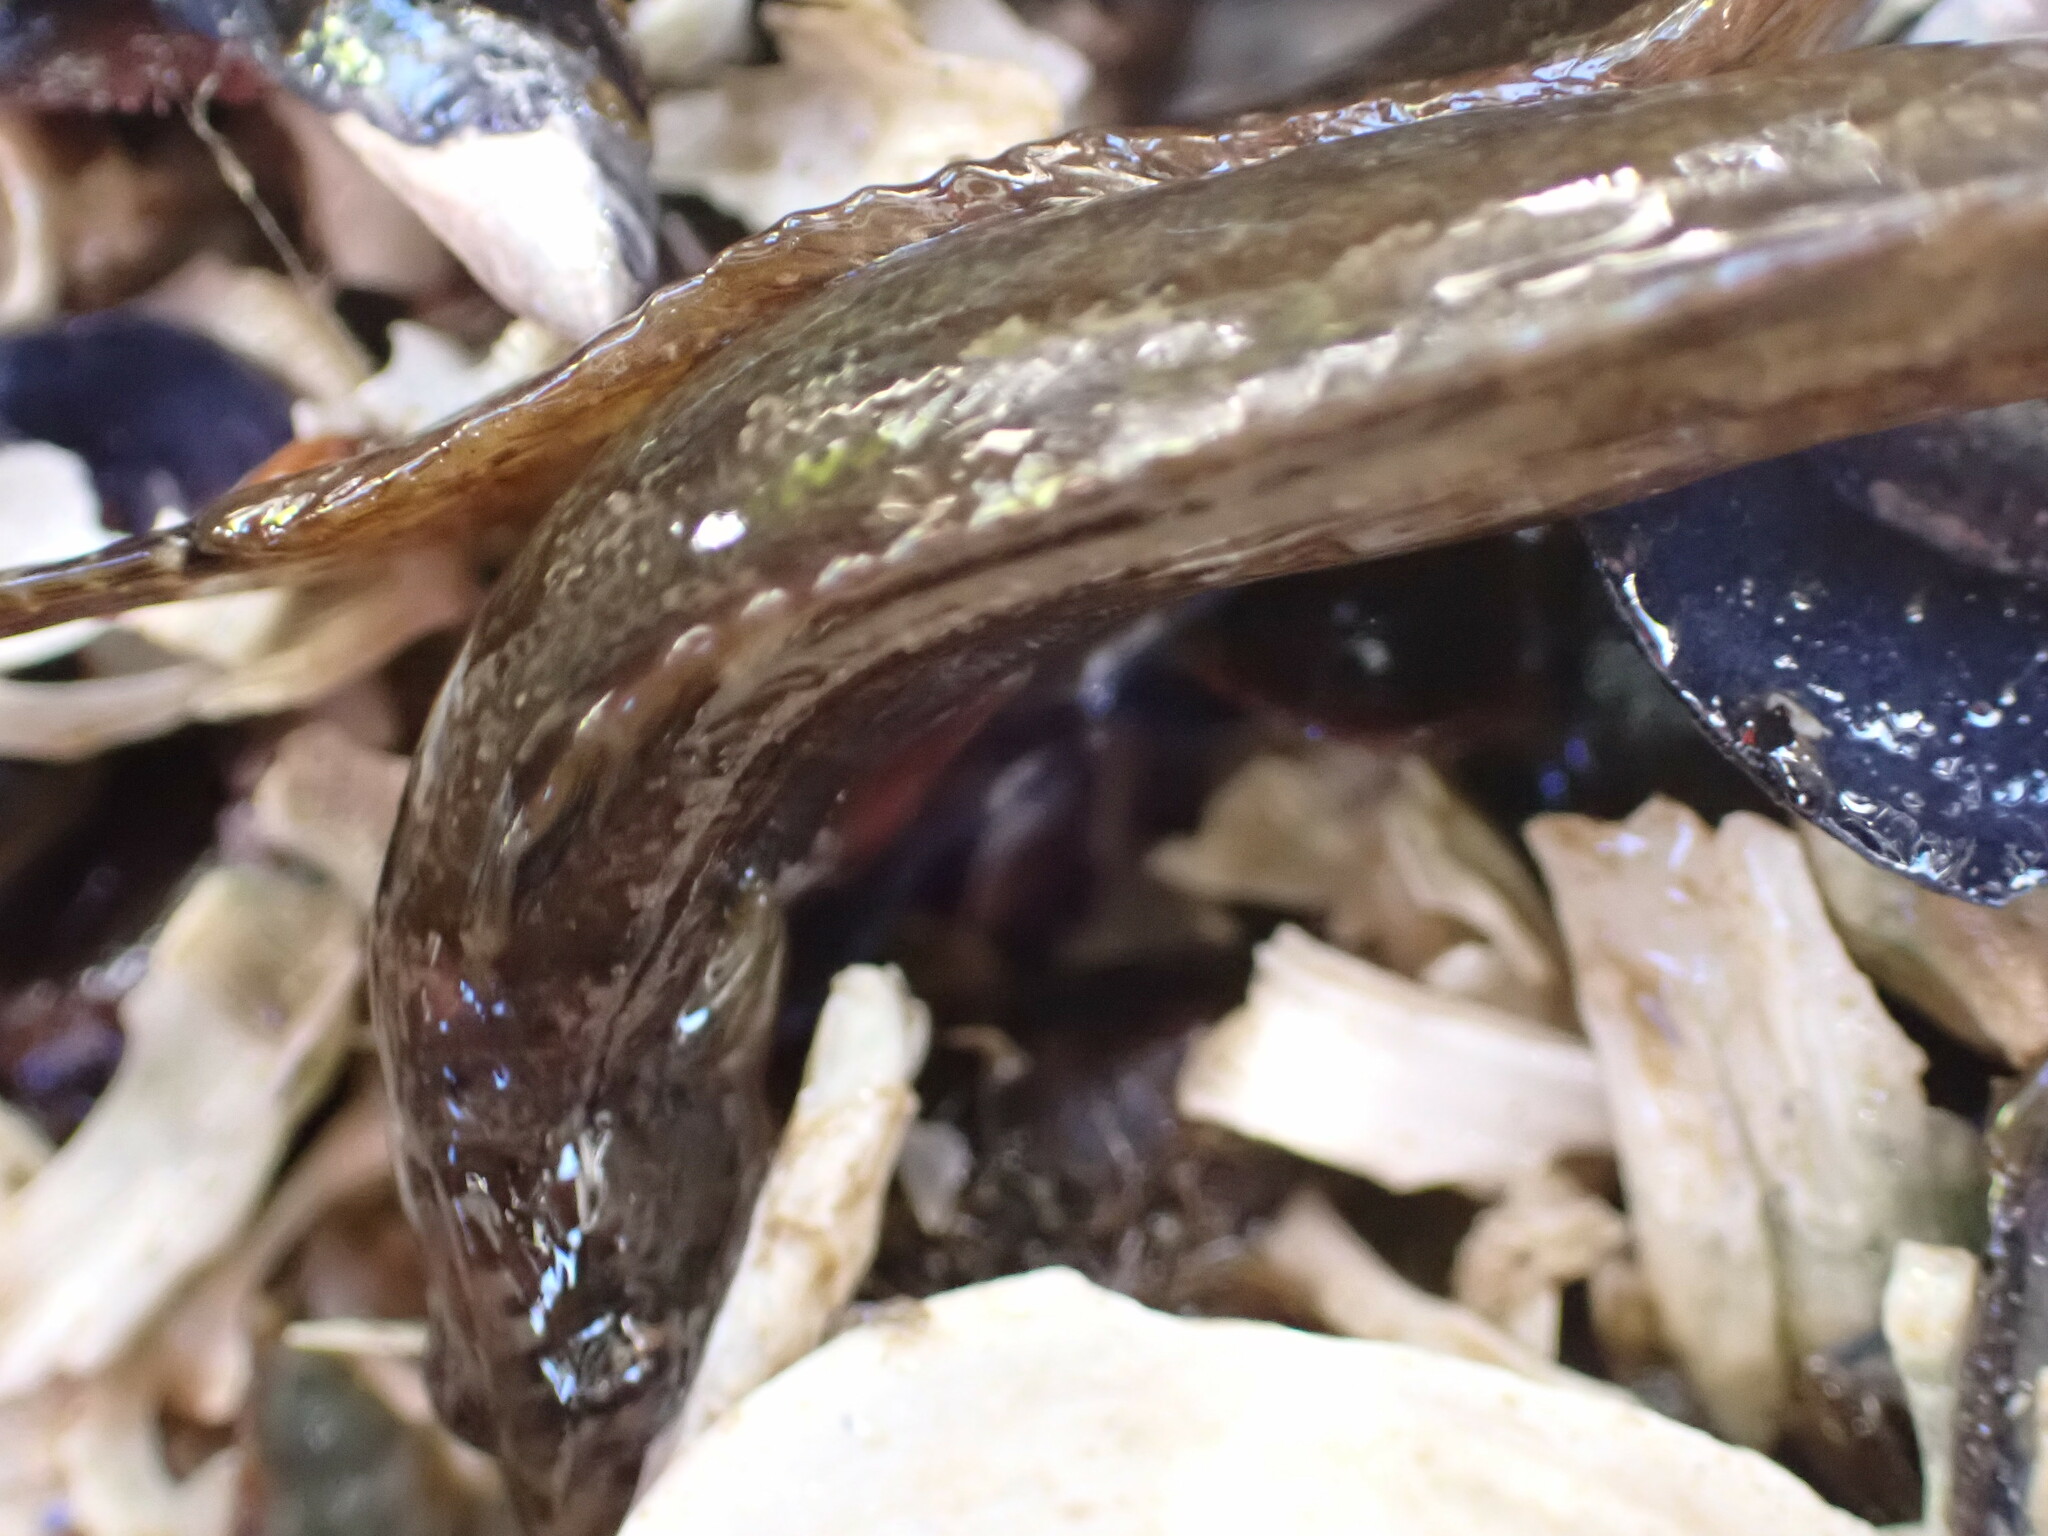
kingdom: Animalia
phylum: Chordata
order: Perciformes
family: Stichaeidae
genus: Anoplarchus
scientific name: Anoplarchus purpurescens
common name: High cockscomb
